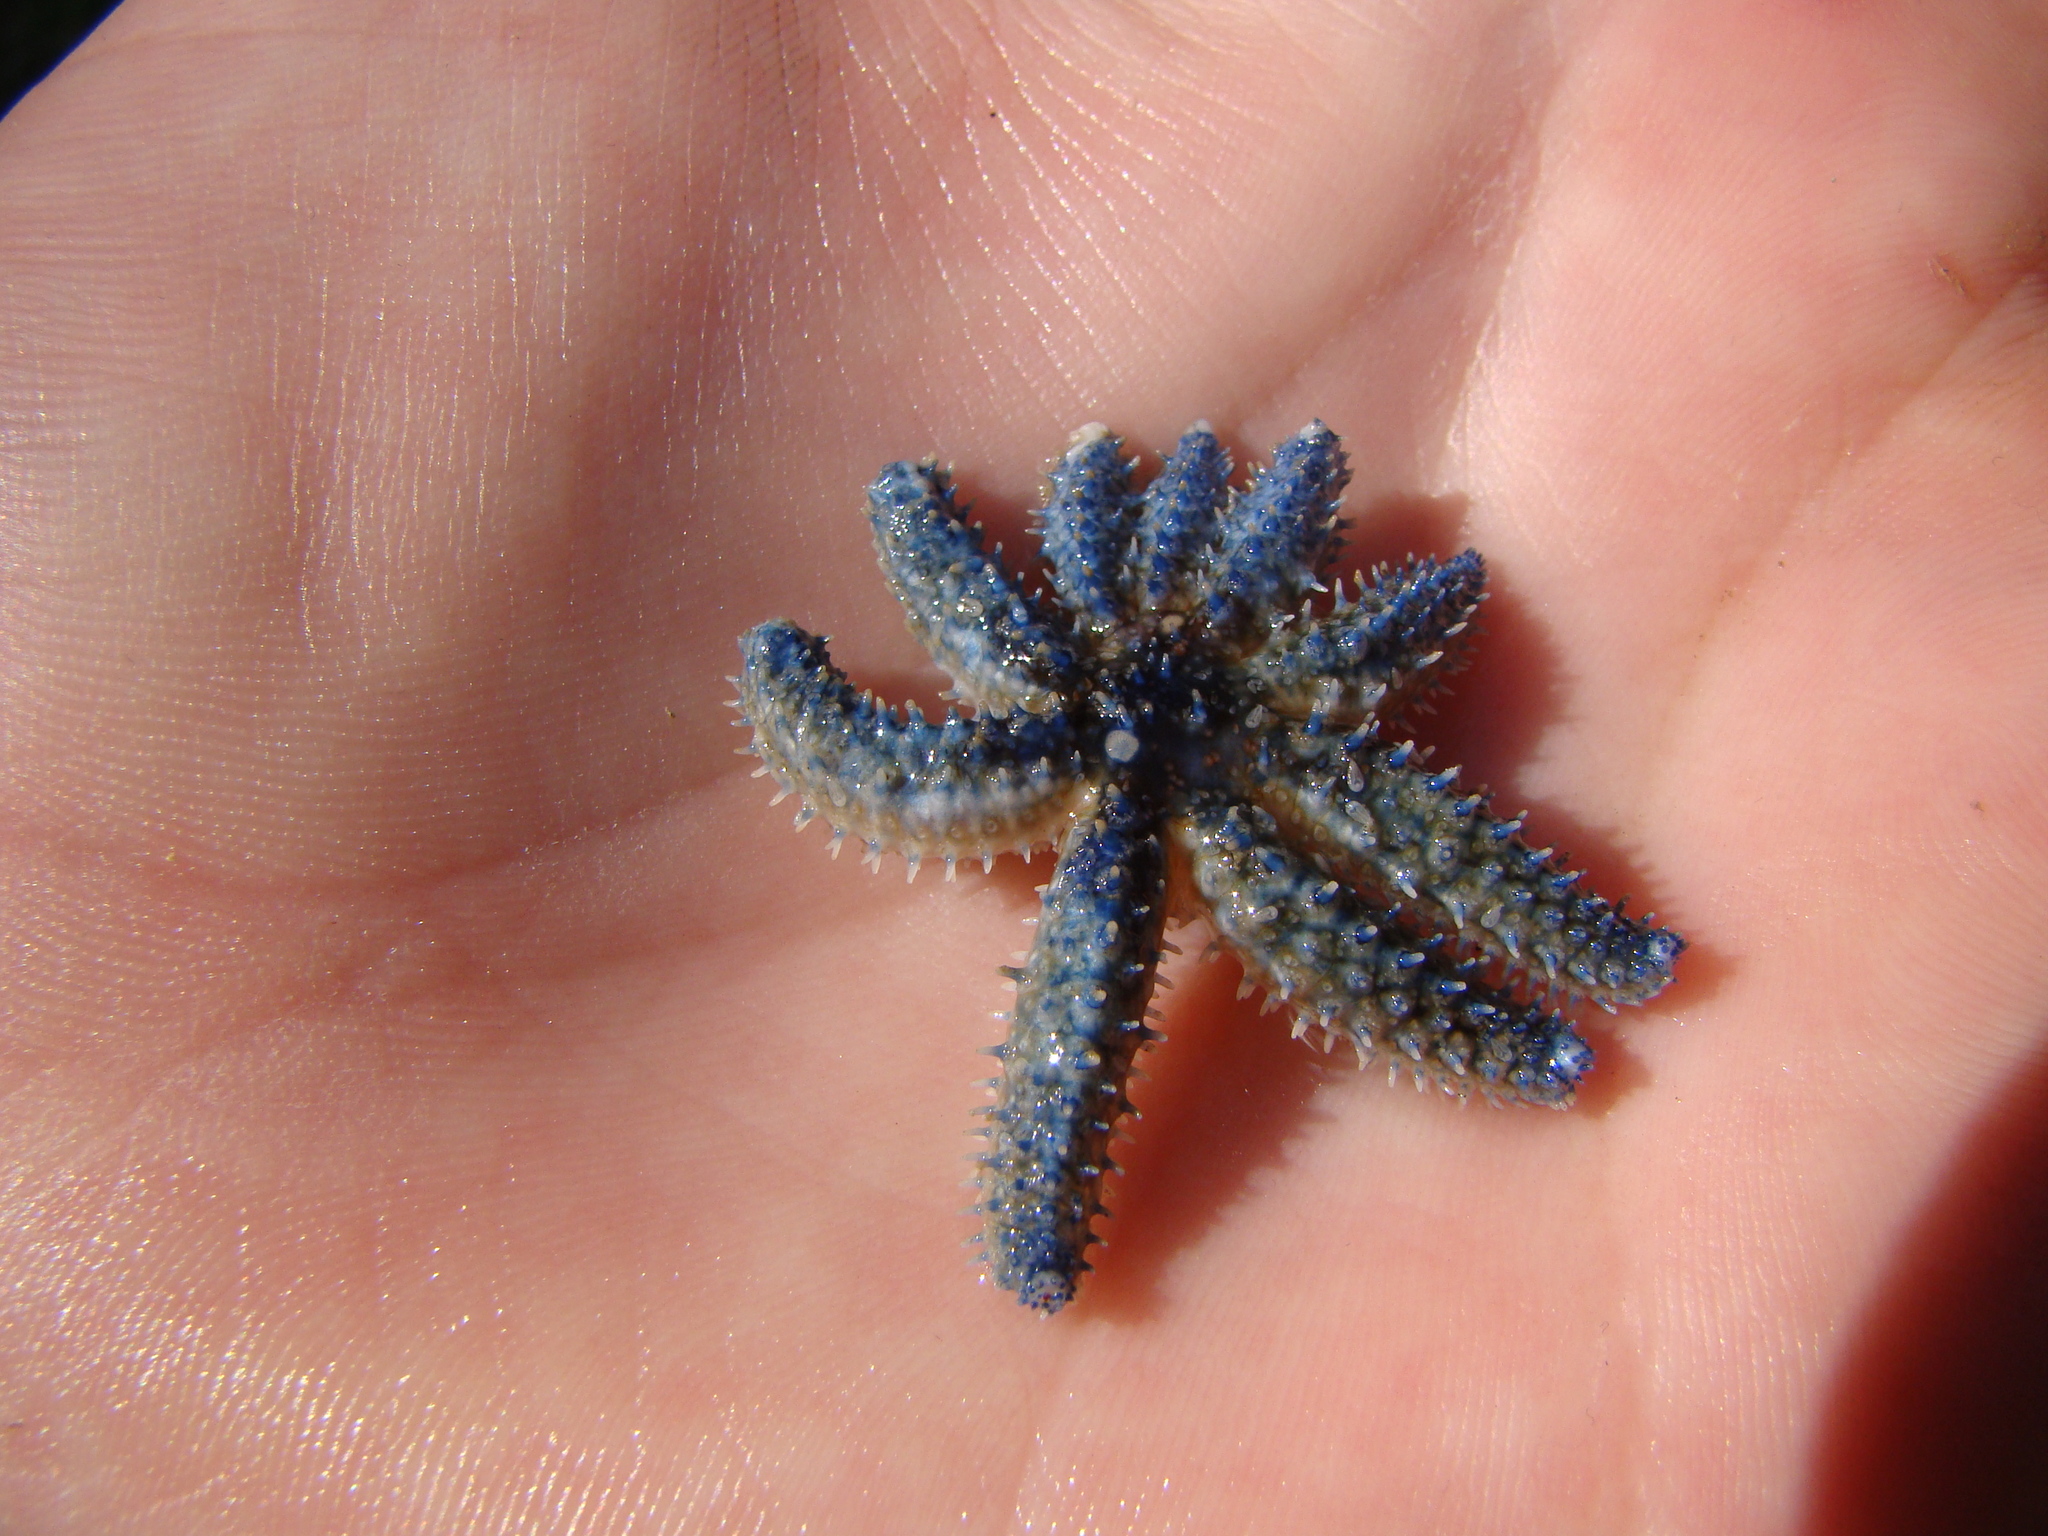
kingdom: Animalia
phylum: Echinodermata
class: Asteroidea
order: Forcipulatida
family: Asteriidae
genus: Coscinasterias
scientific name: Coscinasterias muricata
